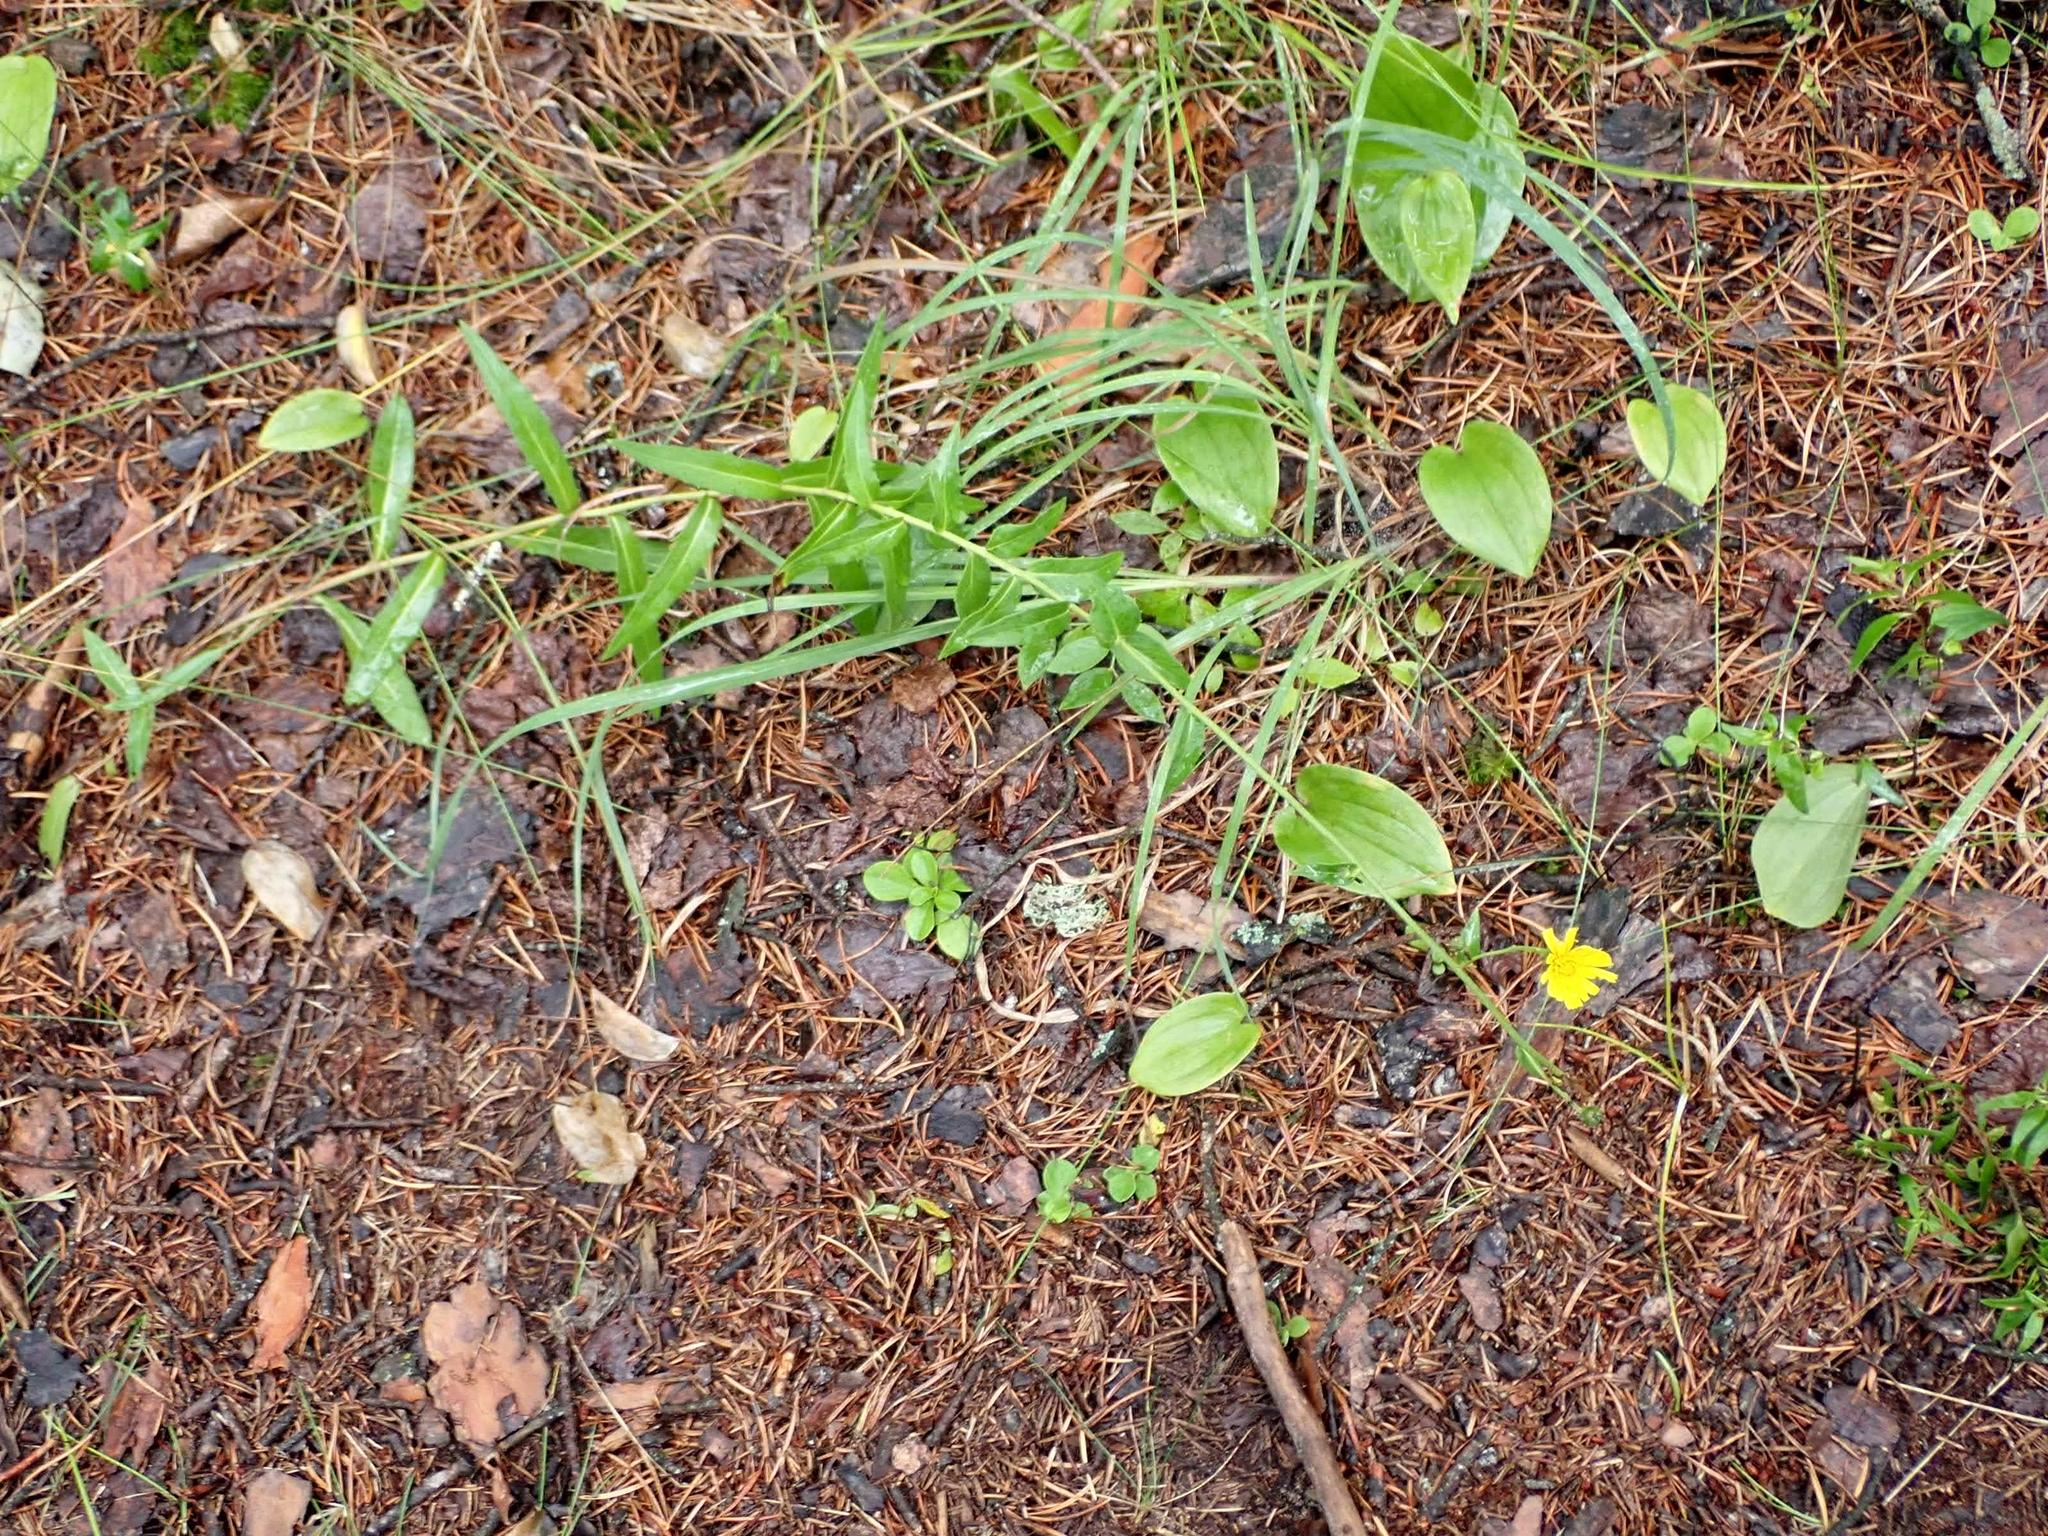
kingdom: Plantae
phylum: Tracheophyta
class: Magnoliopsida
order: Asterales
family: Asteraceae
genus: Hieracium
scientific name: Hieracium umbellatum
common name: Northern hawkweed
